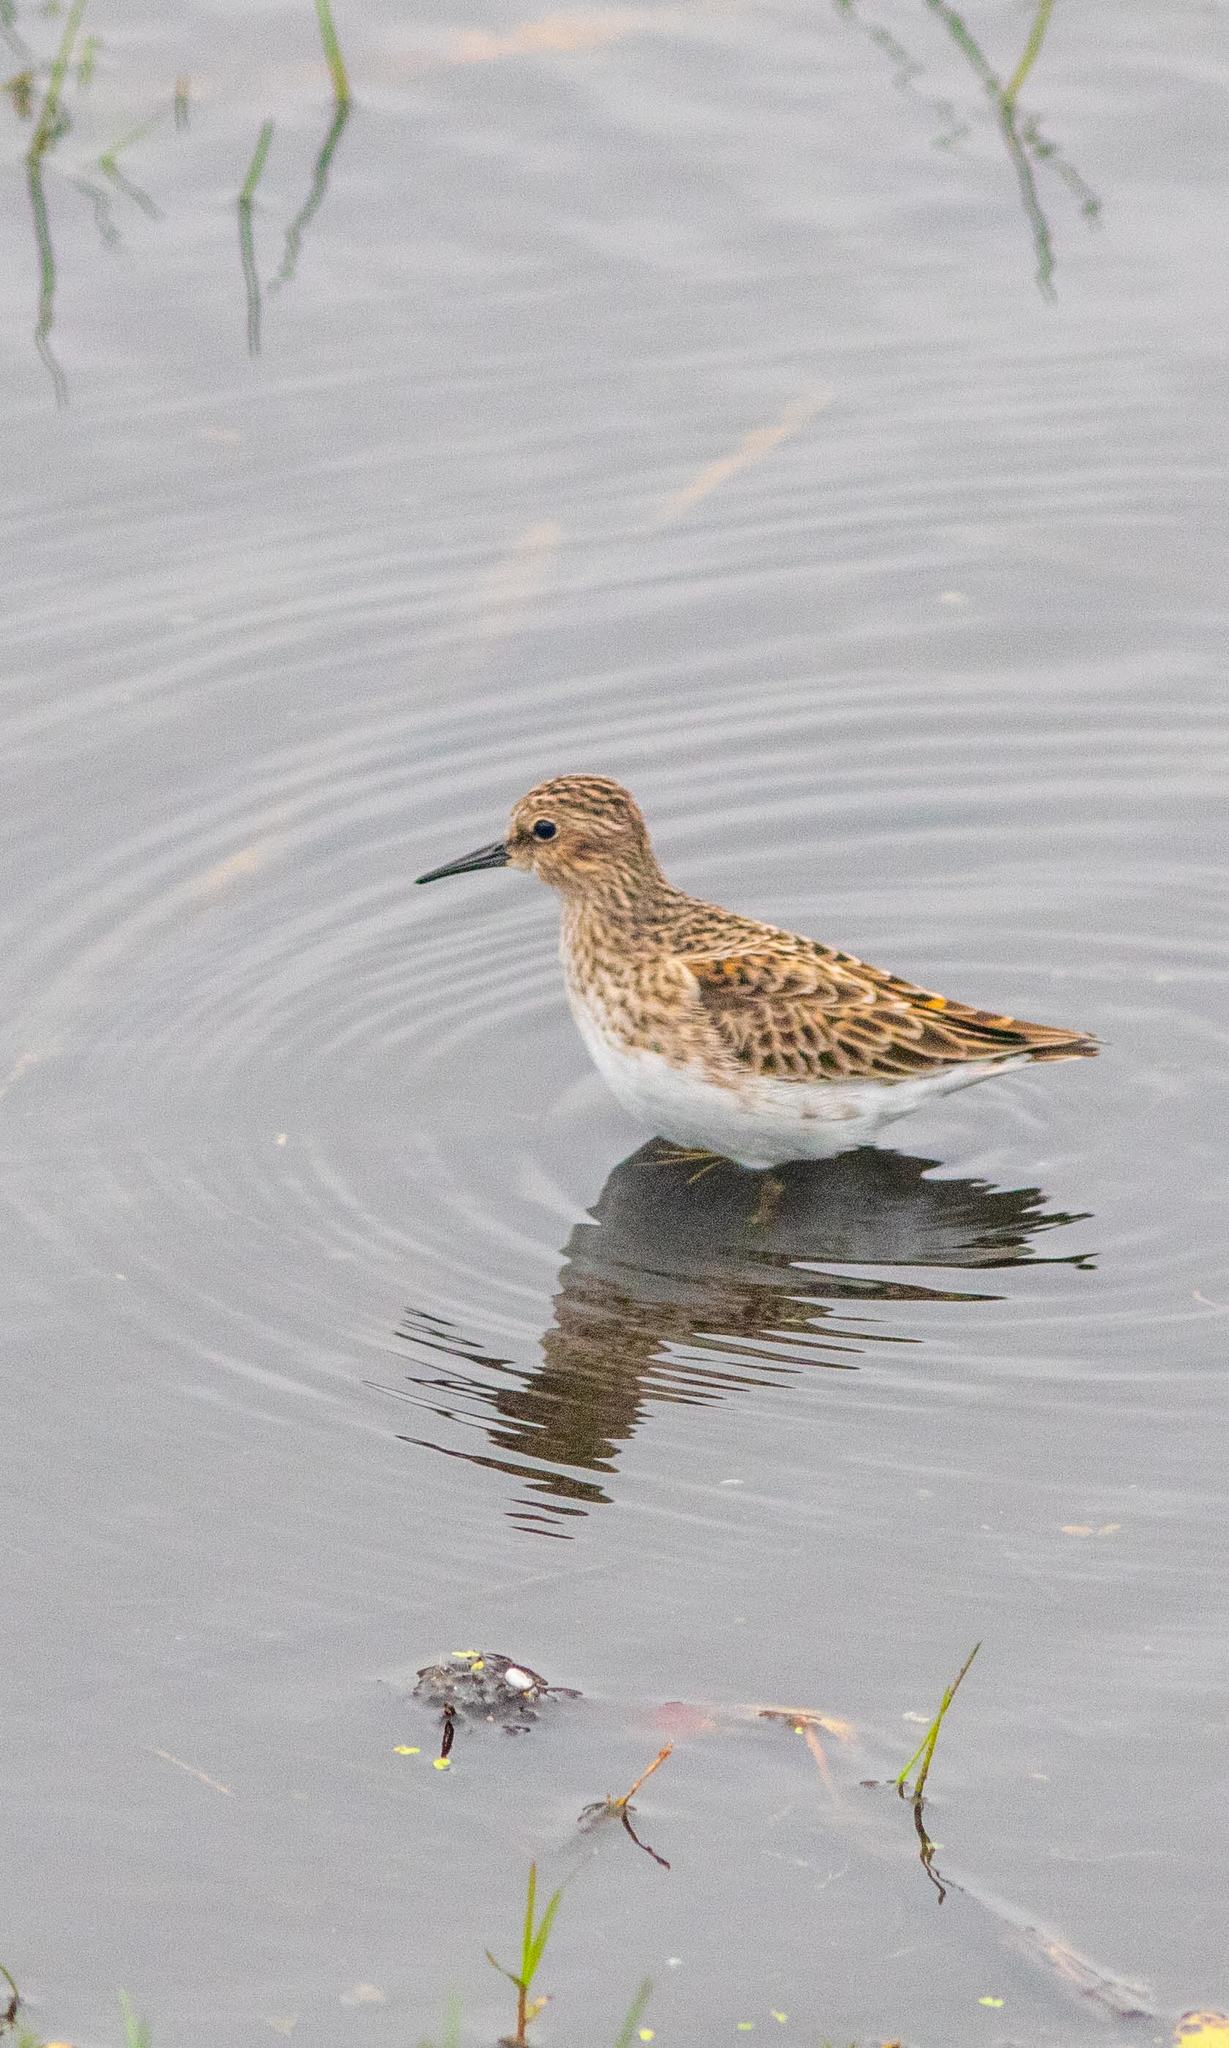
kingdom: Animalia
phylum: Chordata
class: Aves
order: Charadriiformes
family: Scolopacidae
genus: Calidris
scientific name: Calidris minutilla
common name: Least sandpiper
